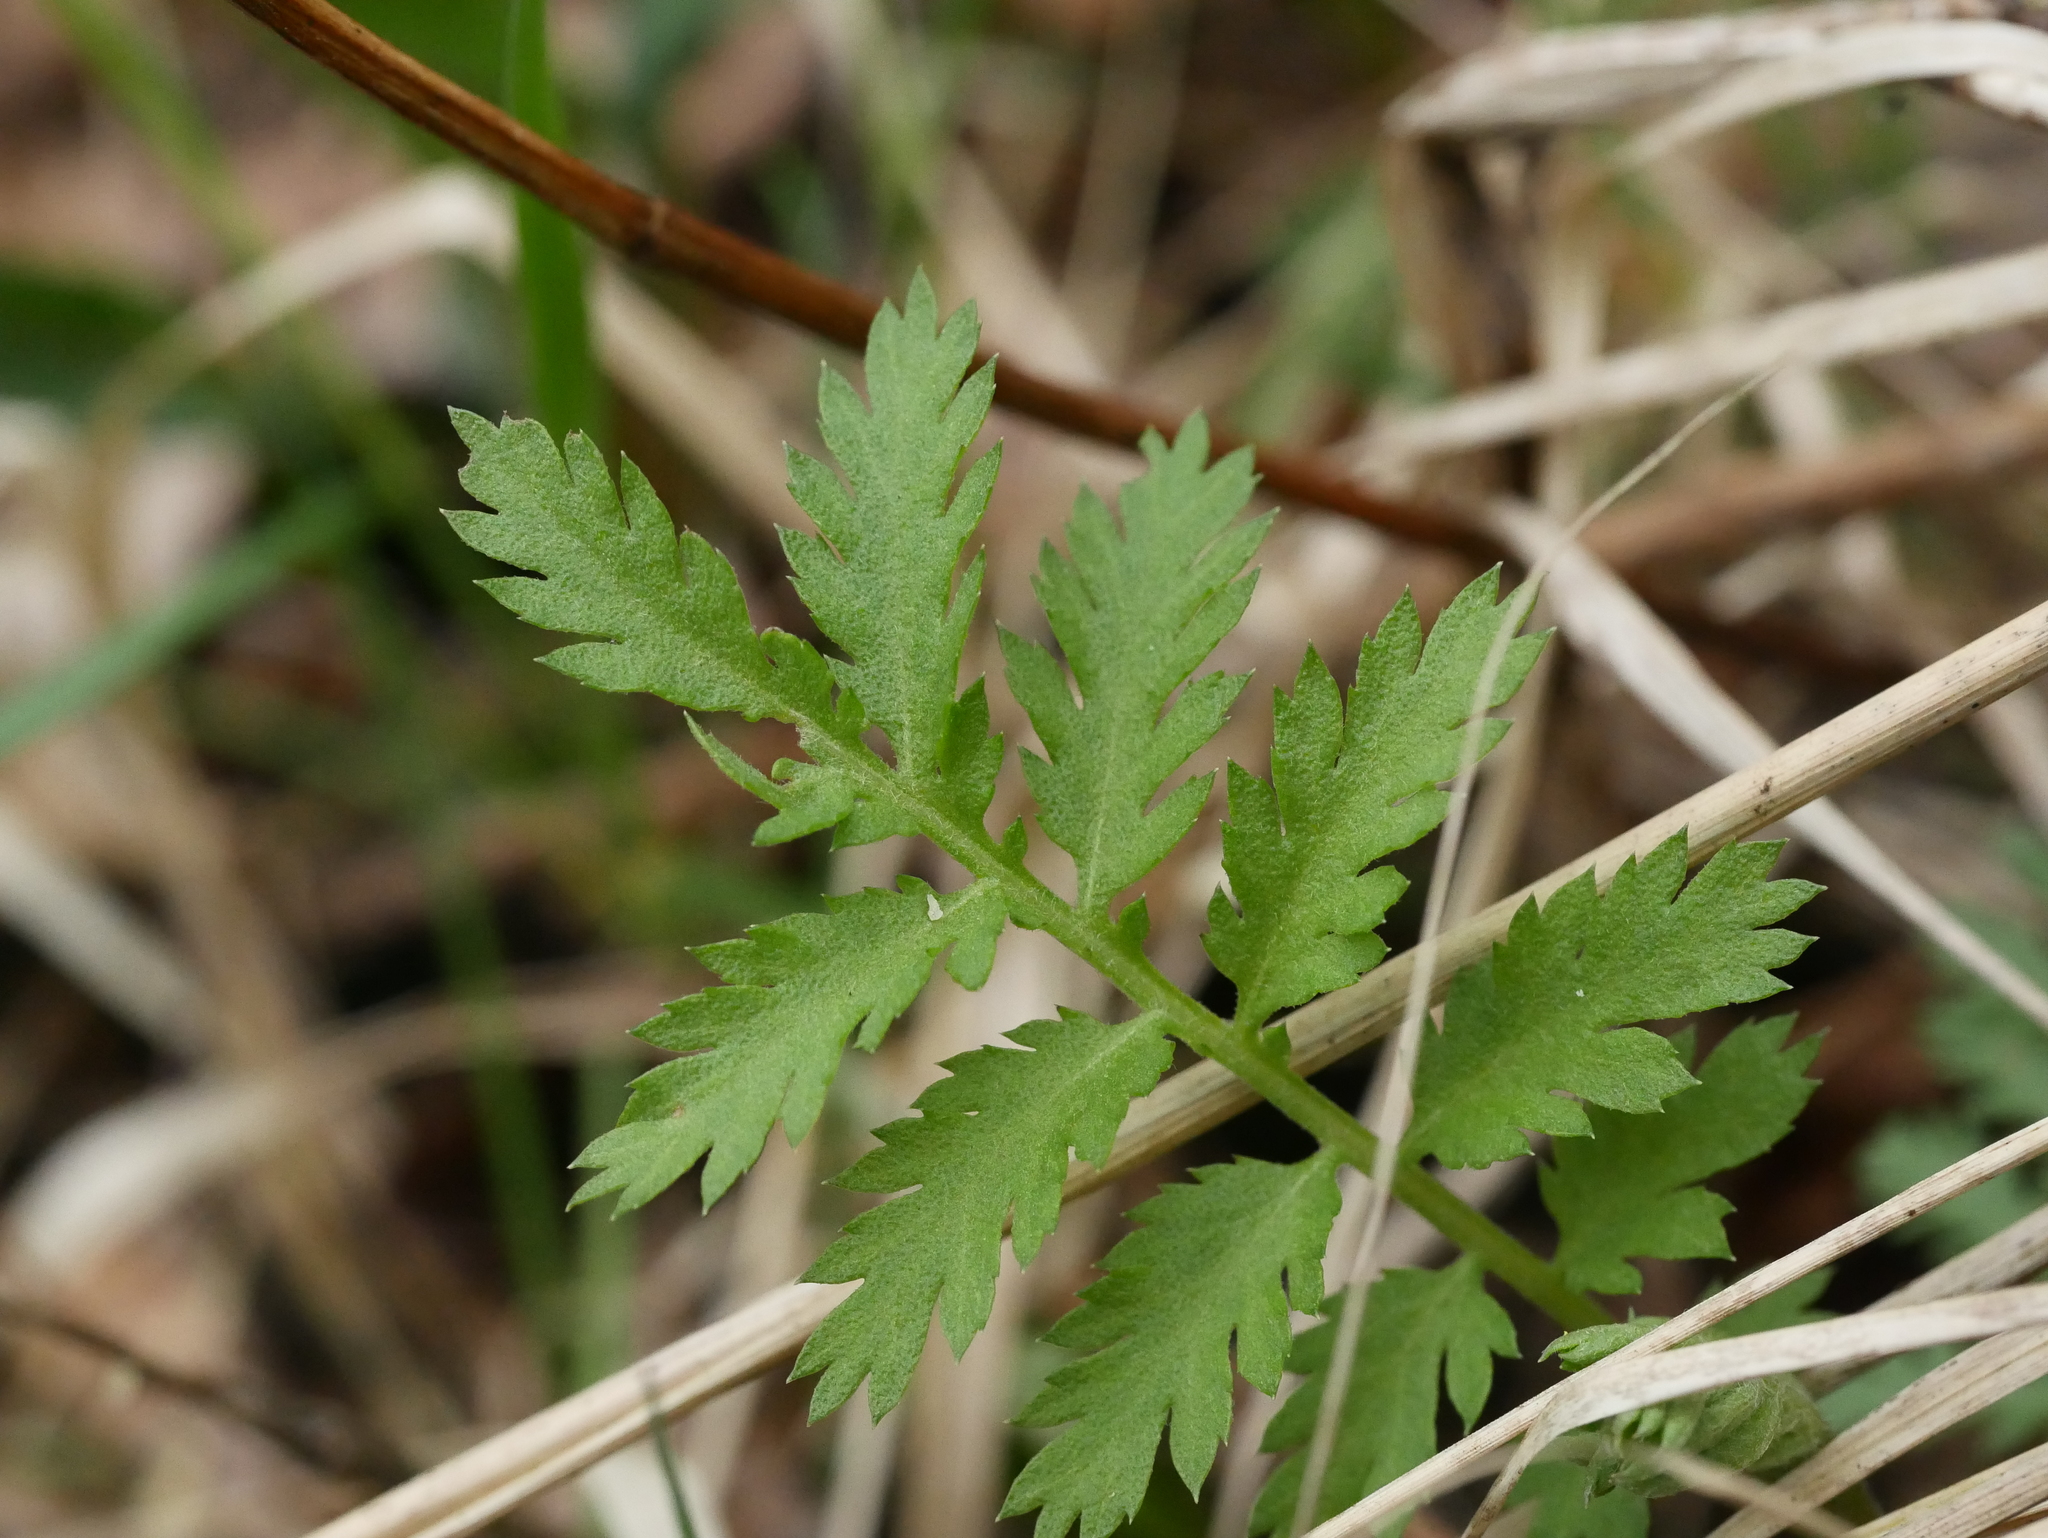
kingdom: Plantae
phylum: Tracheophyta
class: Magnoliopsida
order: Asterales
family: Asteraceae
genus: Tanacetum
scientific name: Tanacetum vulgare
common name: Common tansy
